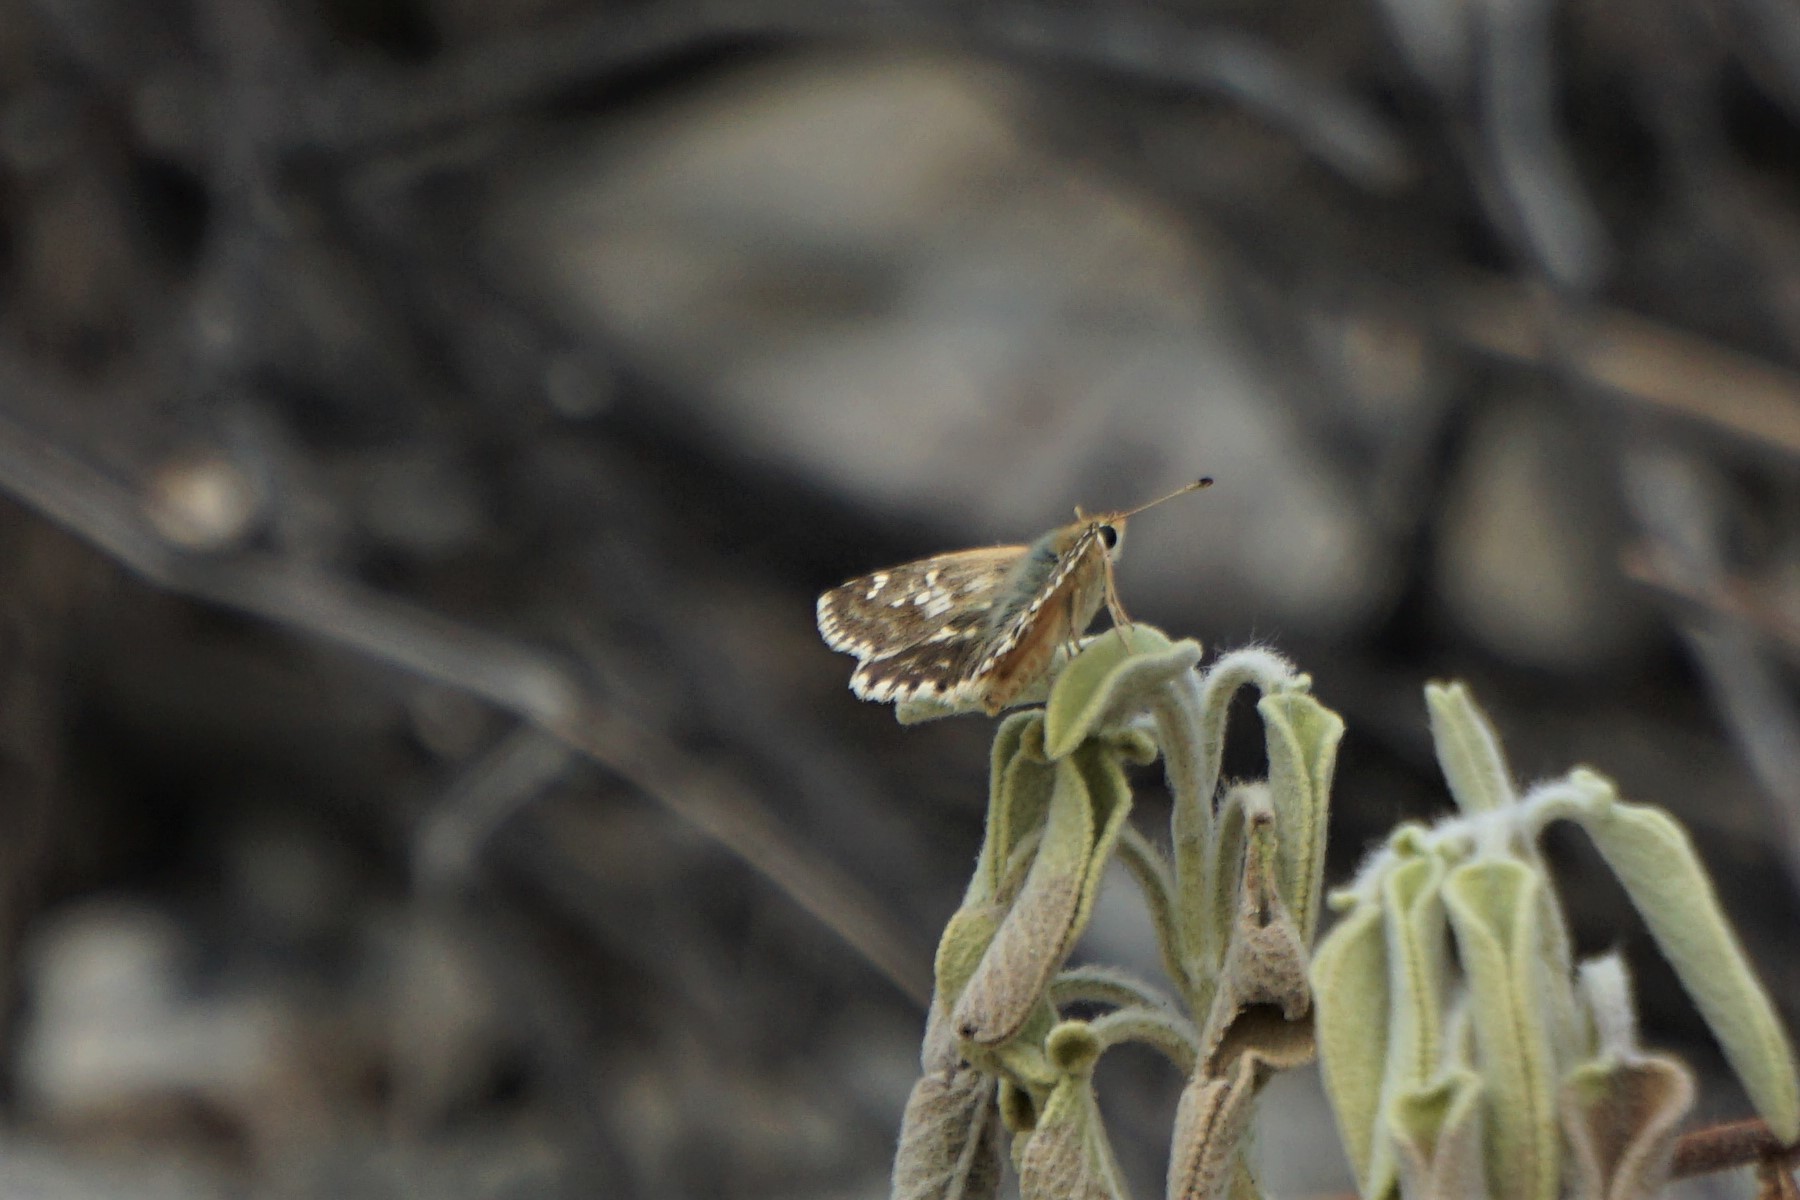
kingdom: Animalia
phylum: Arthropoda
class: Insecta
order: Lepidoptera
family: Hesperiidae
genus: Syrichtus
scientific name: Syrichtus proto
